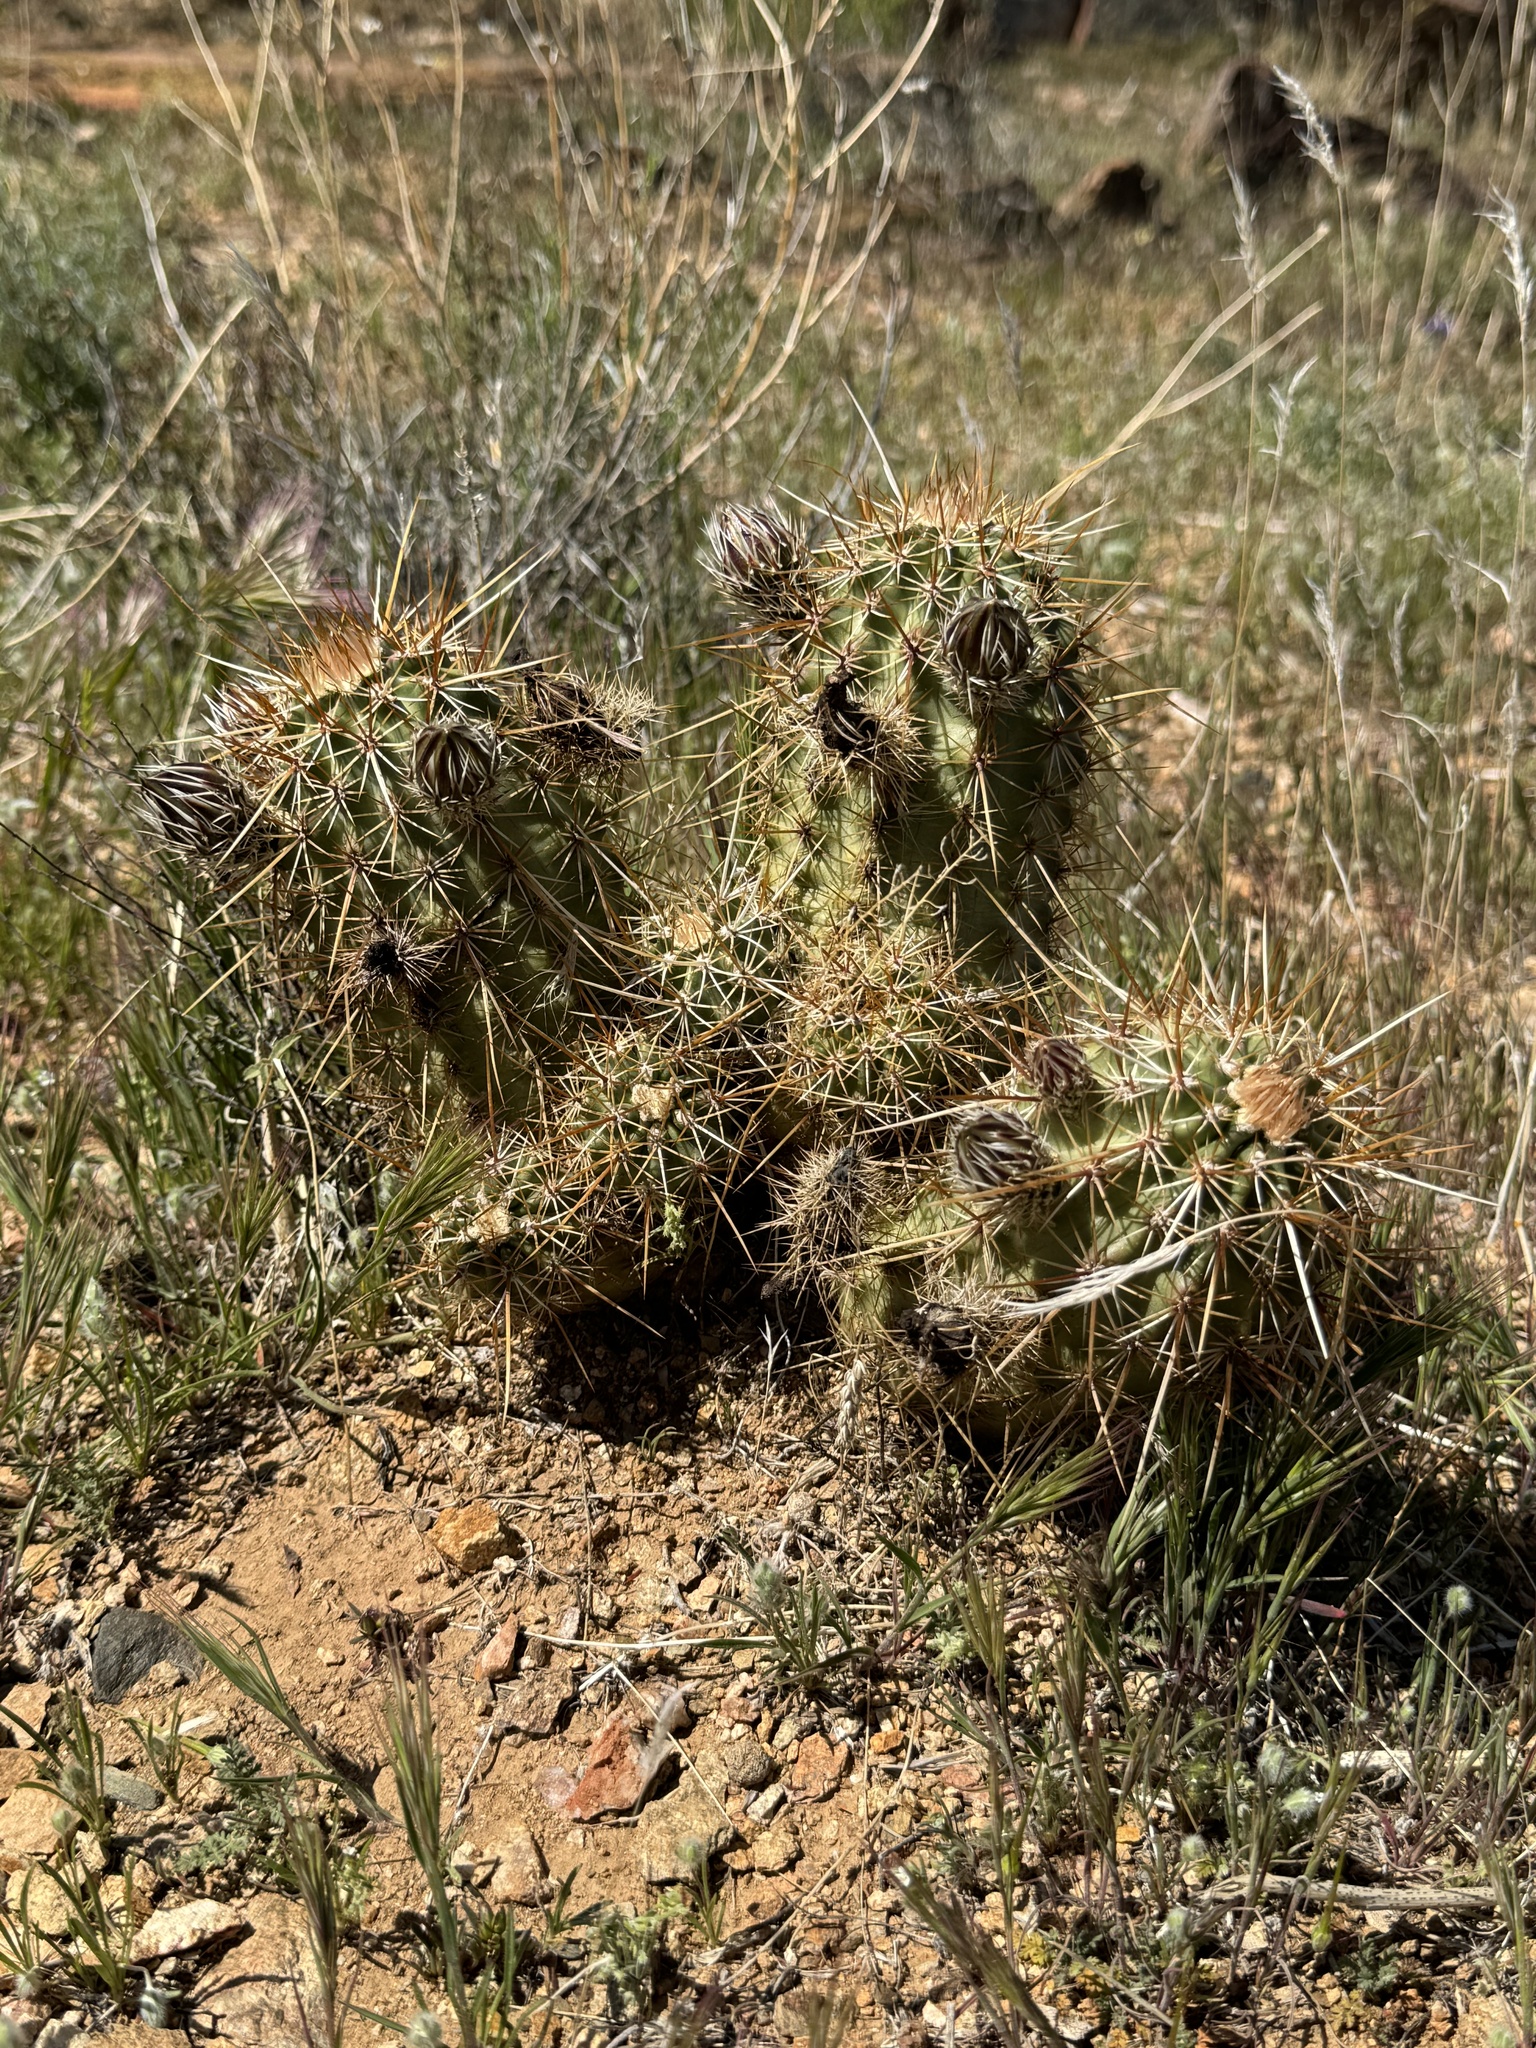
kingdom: Plantae
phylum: Tracheophyta
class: Magnoliopsida
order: Caryophyllales
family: Cactaceae
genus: Echinocereus
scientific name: Echinocereus engelmannii
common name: Engelmann's hedgehog cactus
